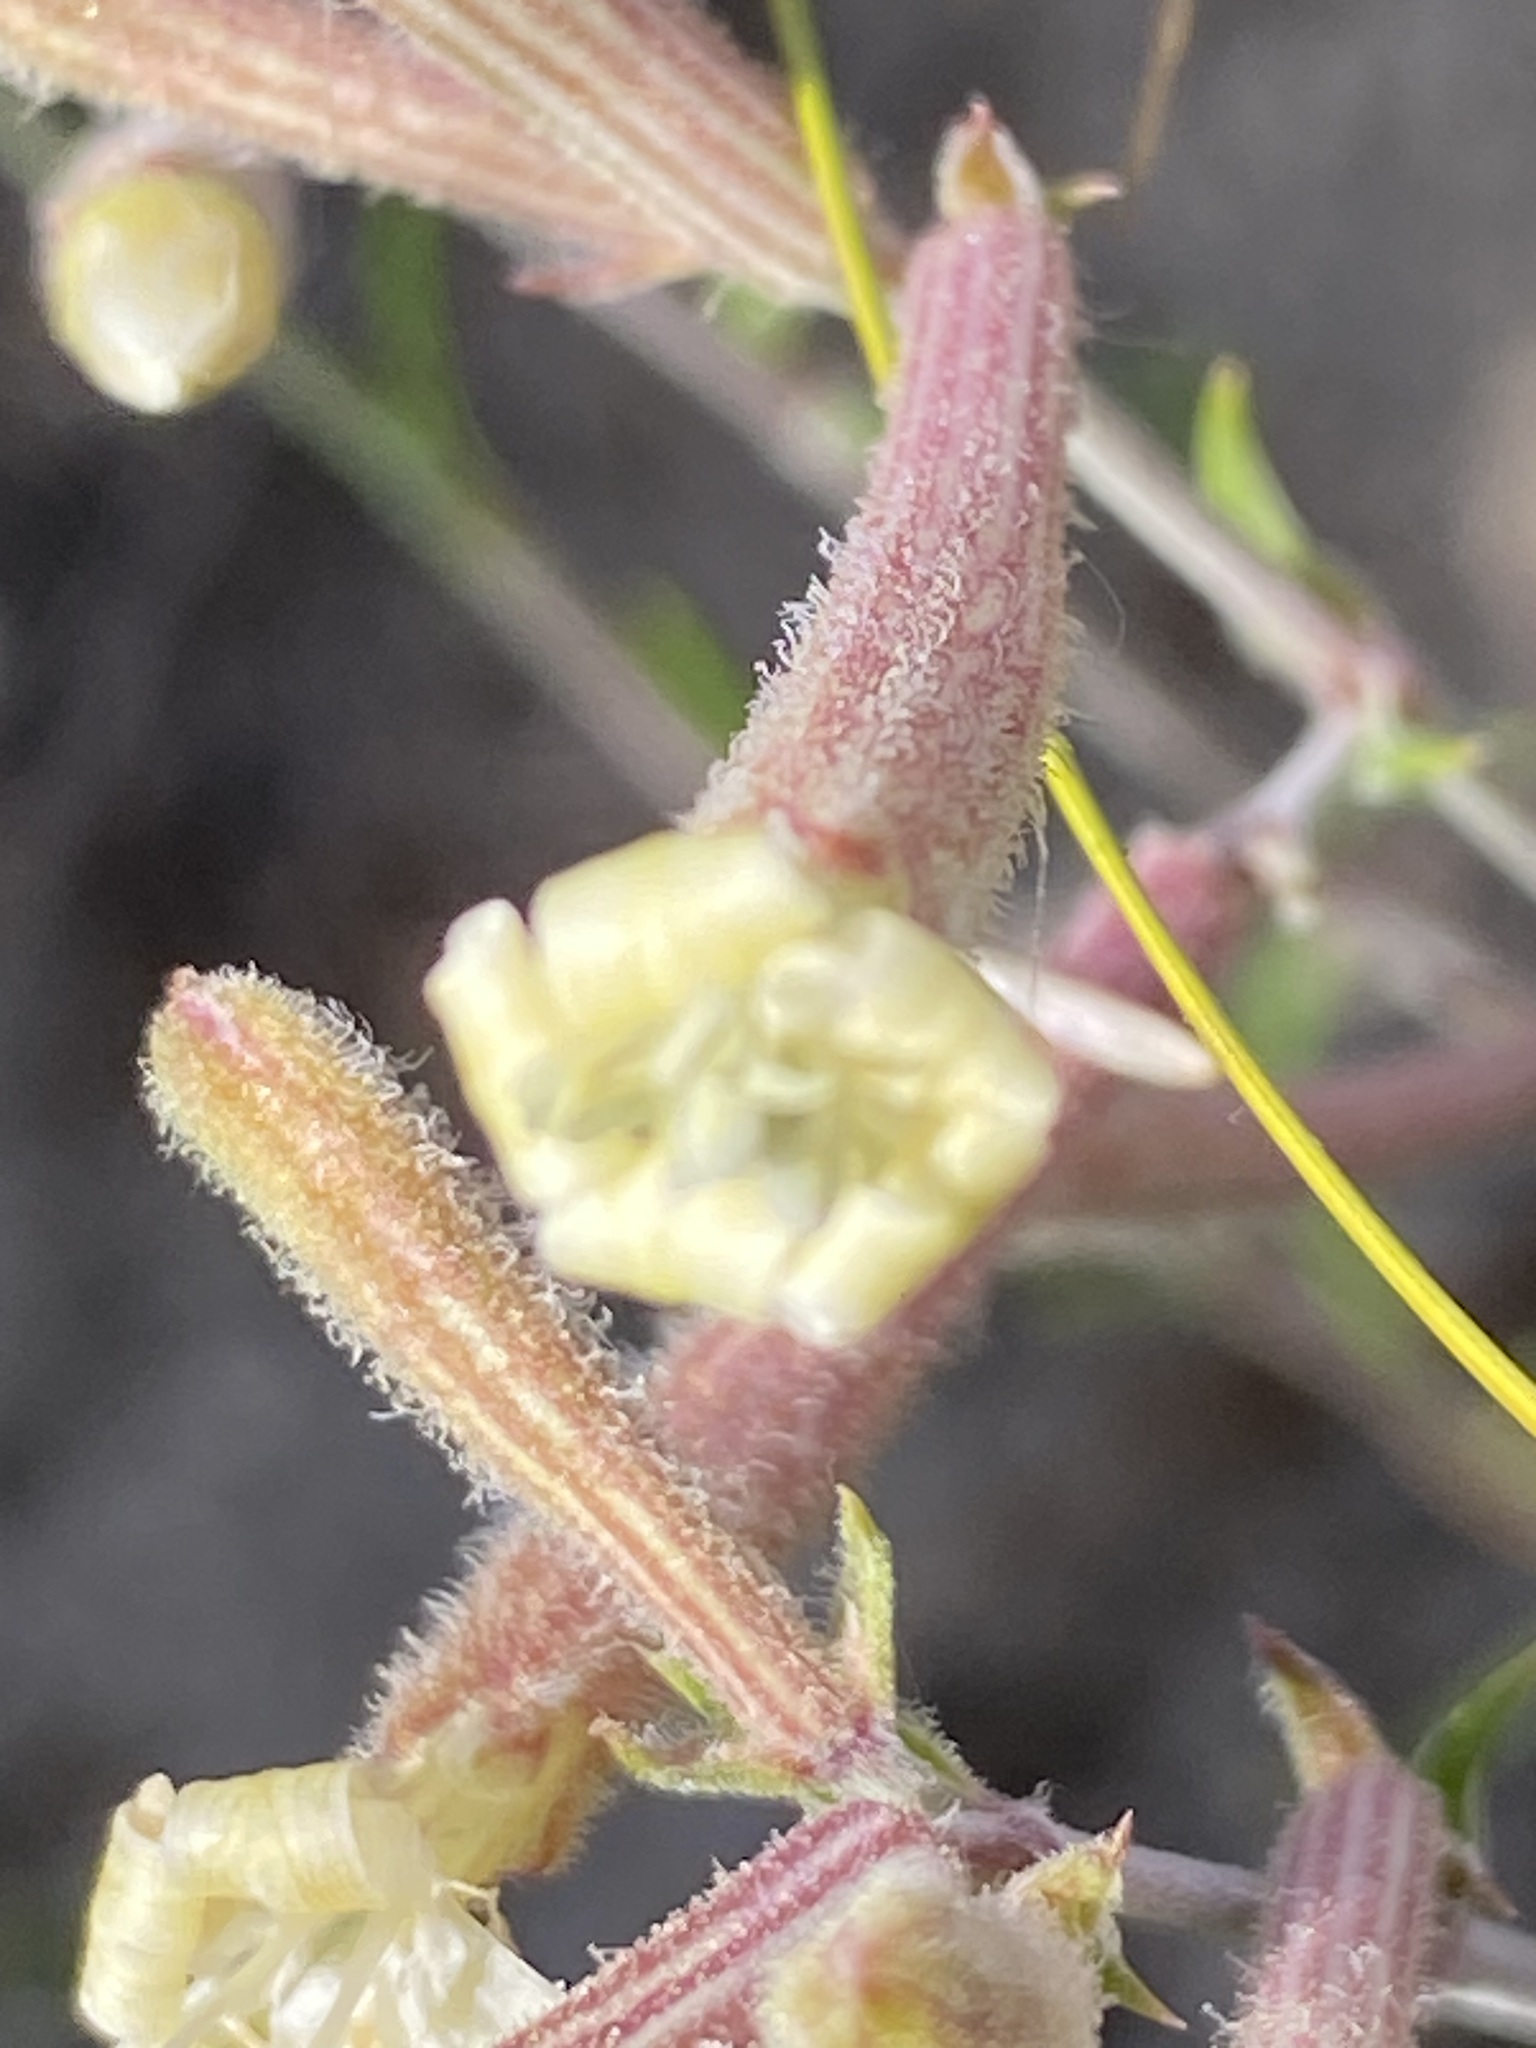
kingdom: Plantae
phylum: Tracheophyta
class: Magnoliopsida
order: Caryophyllales
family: Caryophyllaceae
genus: Silene
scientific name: Silene supina
